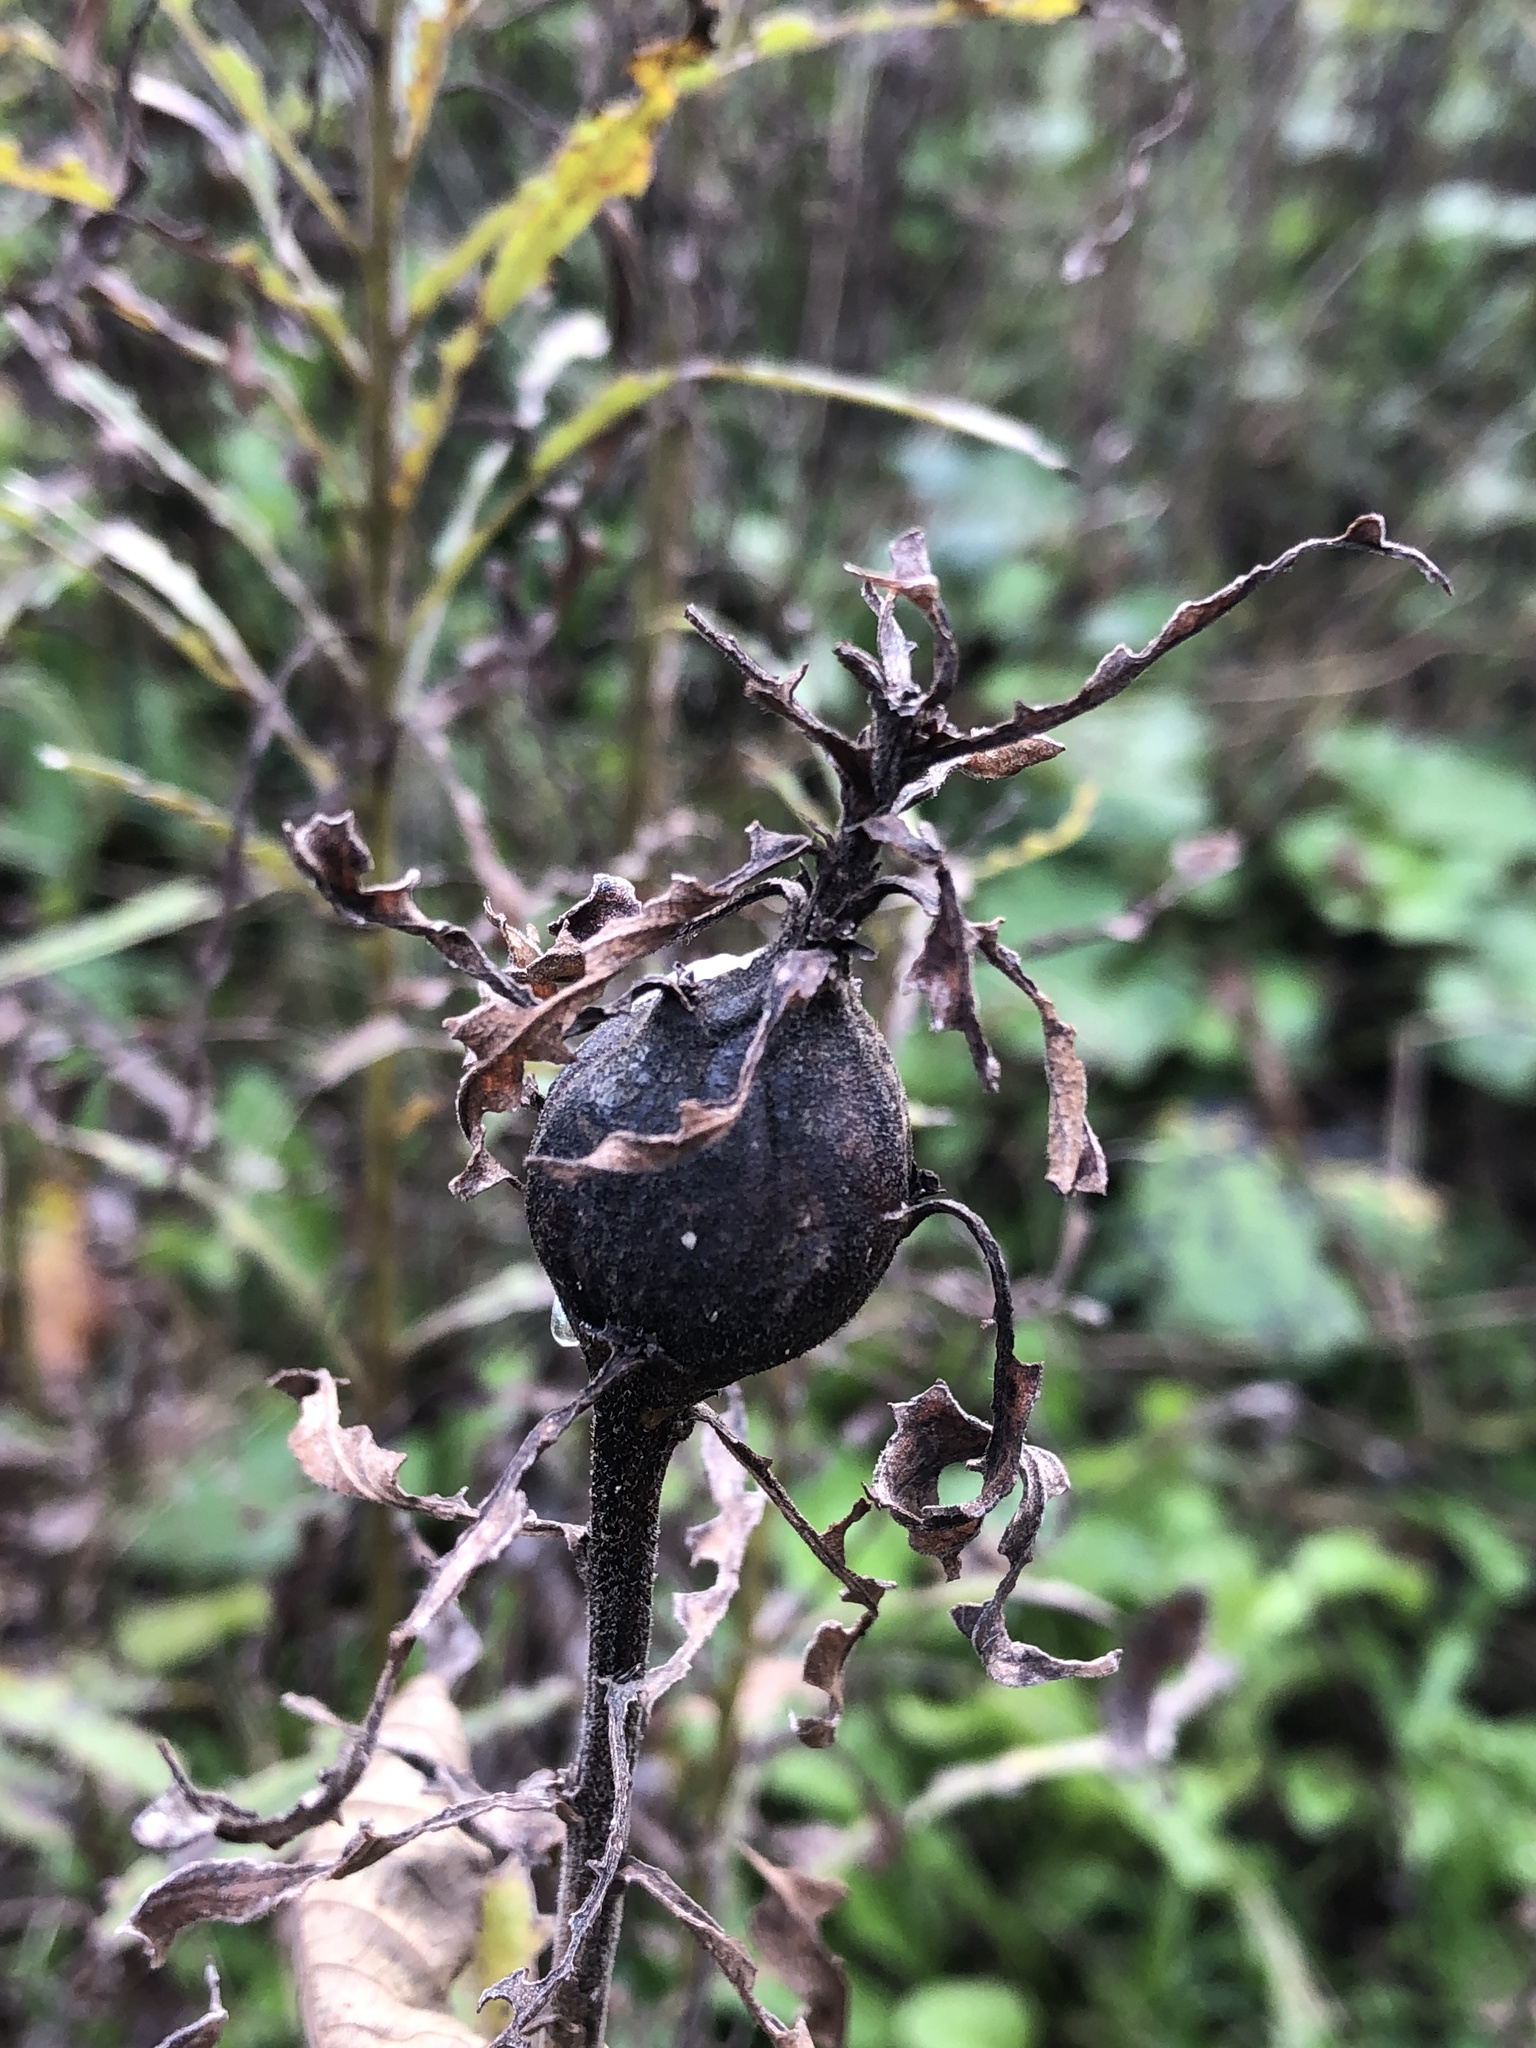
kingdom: Animalia
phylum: Arthropoda
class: Insecta
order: Diptera
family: Tephritidae
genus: Eurosta
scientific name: Eurosta solidaginis
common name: Goldenrod gall fly
